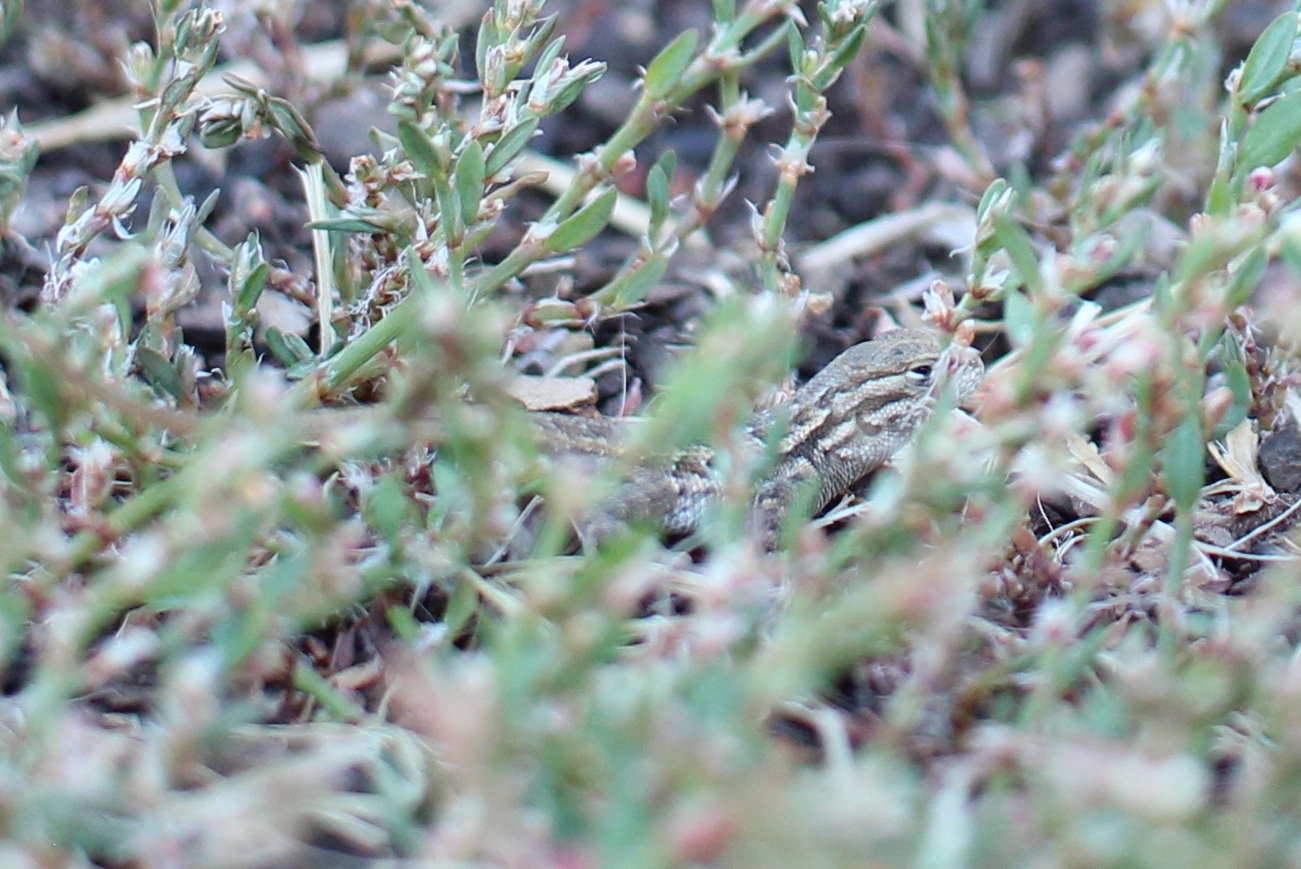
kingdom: Animalia
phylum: Chordata
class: Squamata
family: Phrynosomatidae
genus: Sceloporus
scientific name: Sceloporus graciosus
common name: Sagebrush lizard
